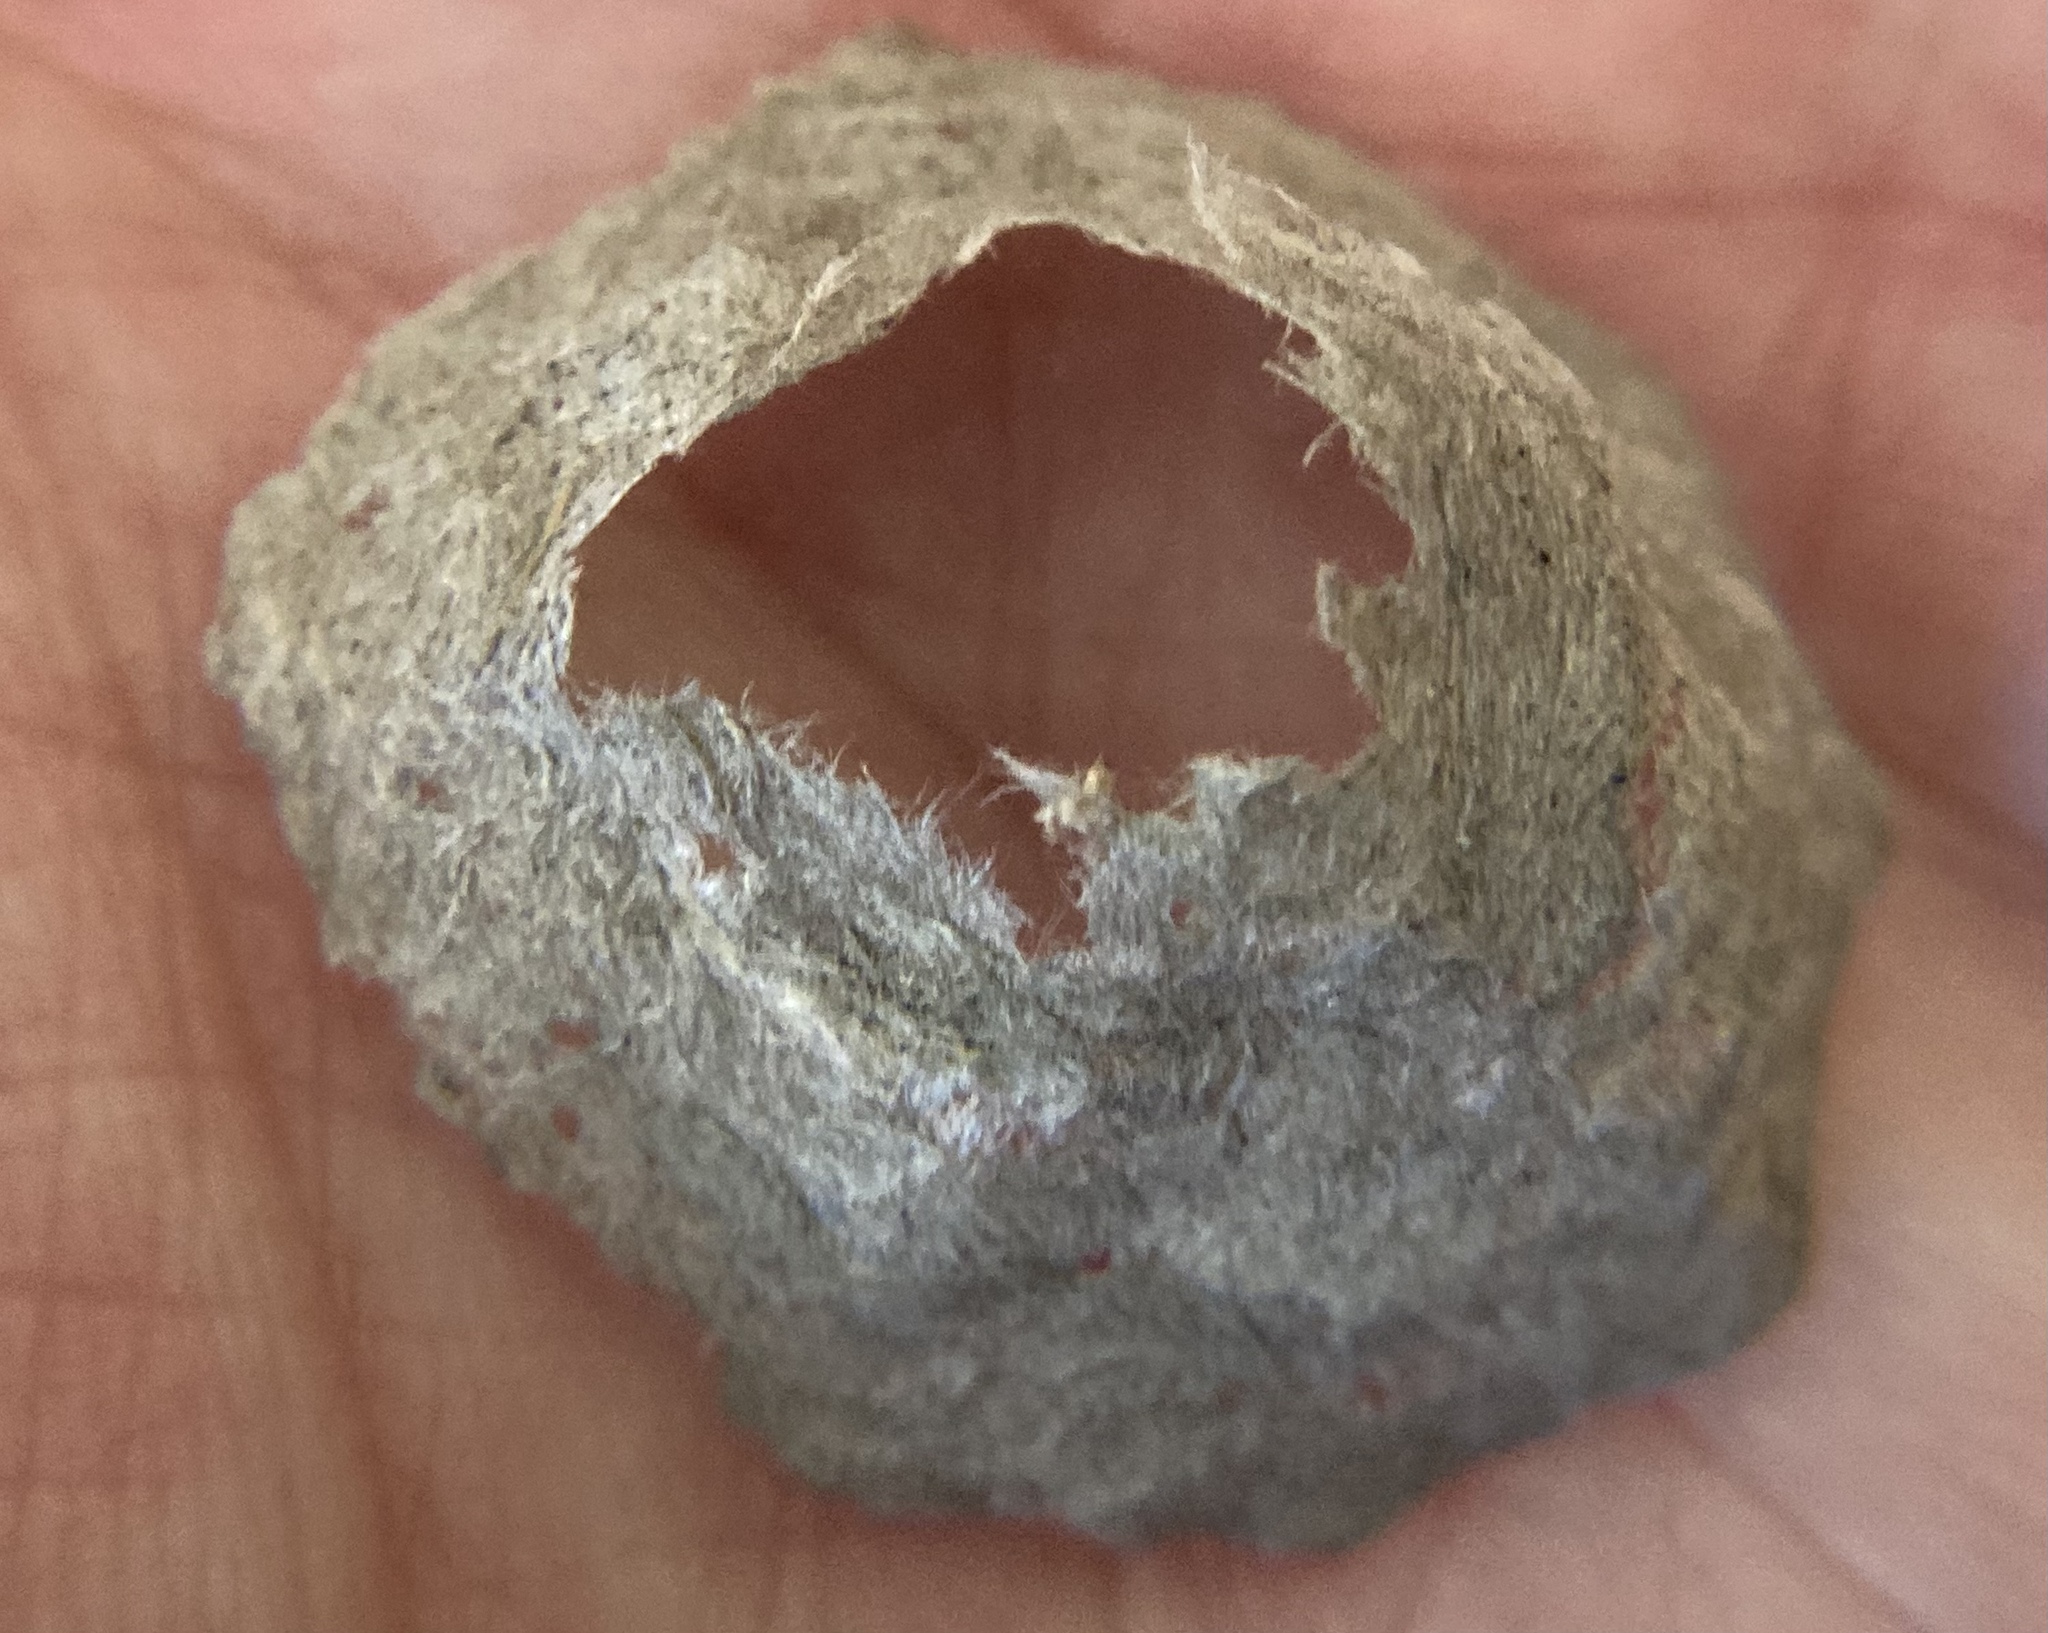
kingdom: Animalia
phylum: Arthropoda
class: Insecta
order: Hymenoptera
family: Vespidae
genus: Dolichovespula
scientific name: Dolichovespula
